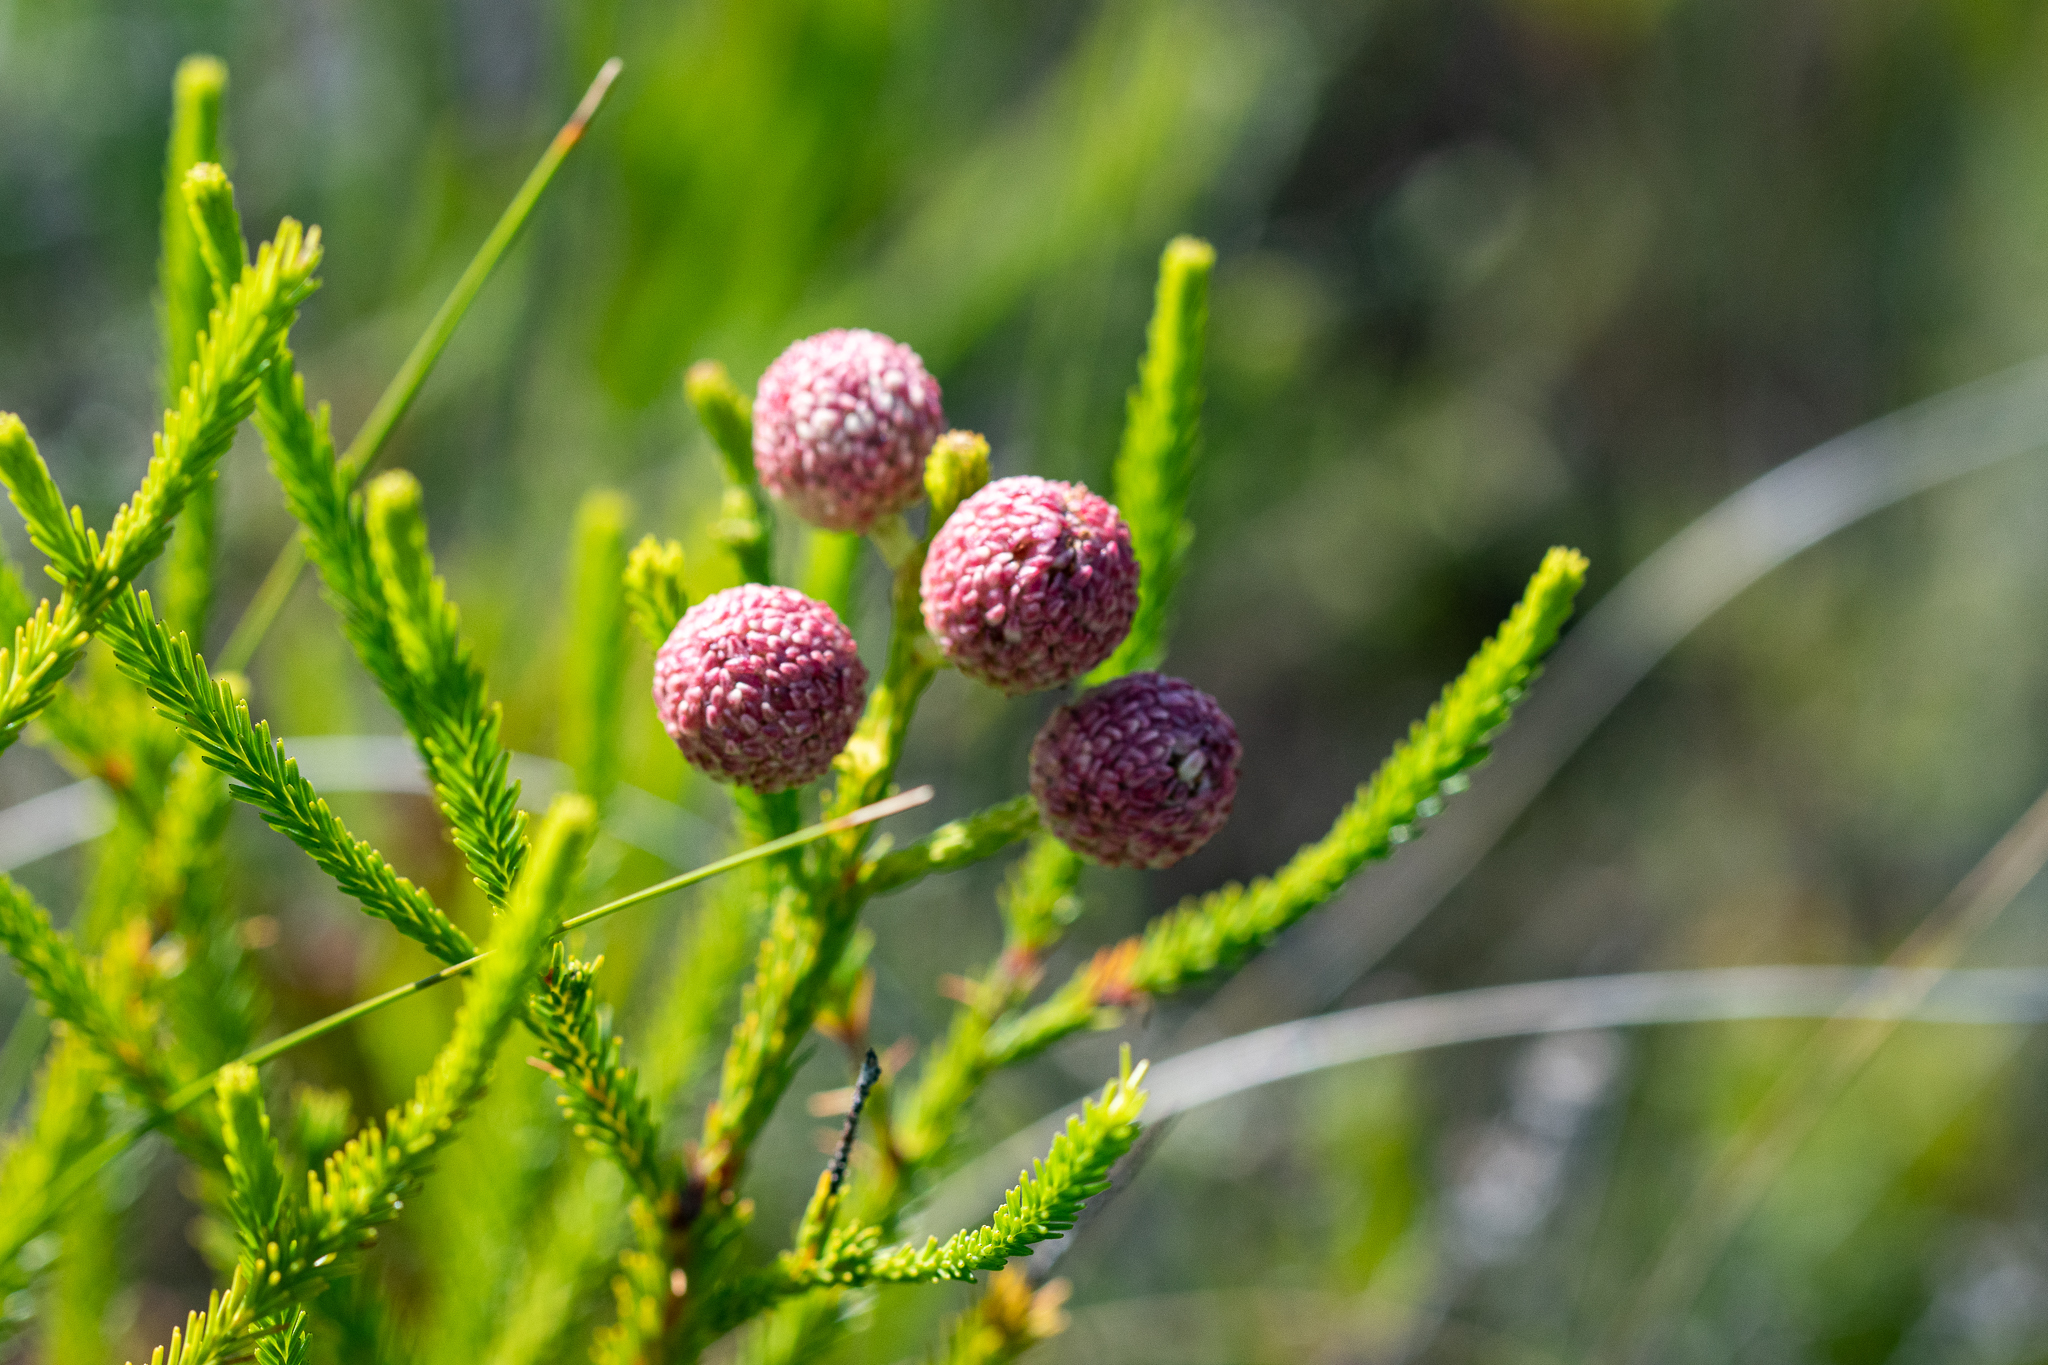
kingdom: Plantae
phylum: Tracheophyta
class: Magnoliopsida
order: Bruniales
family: Bruniaceae
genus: Berzelia
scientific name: Berzelia lanuginosa
